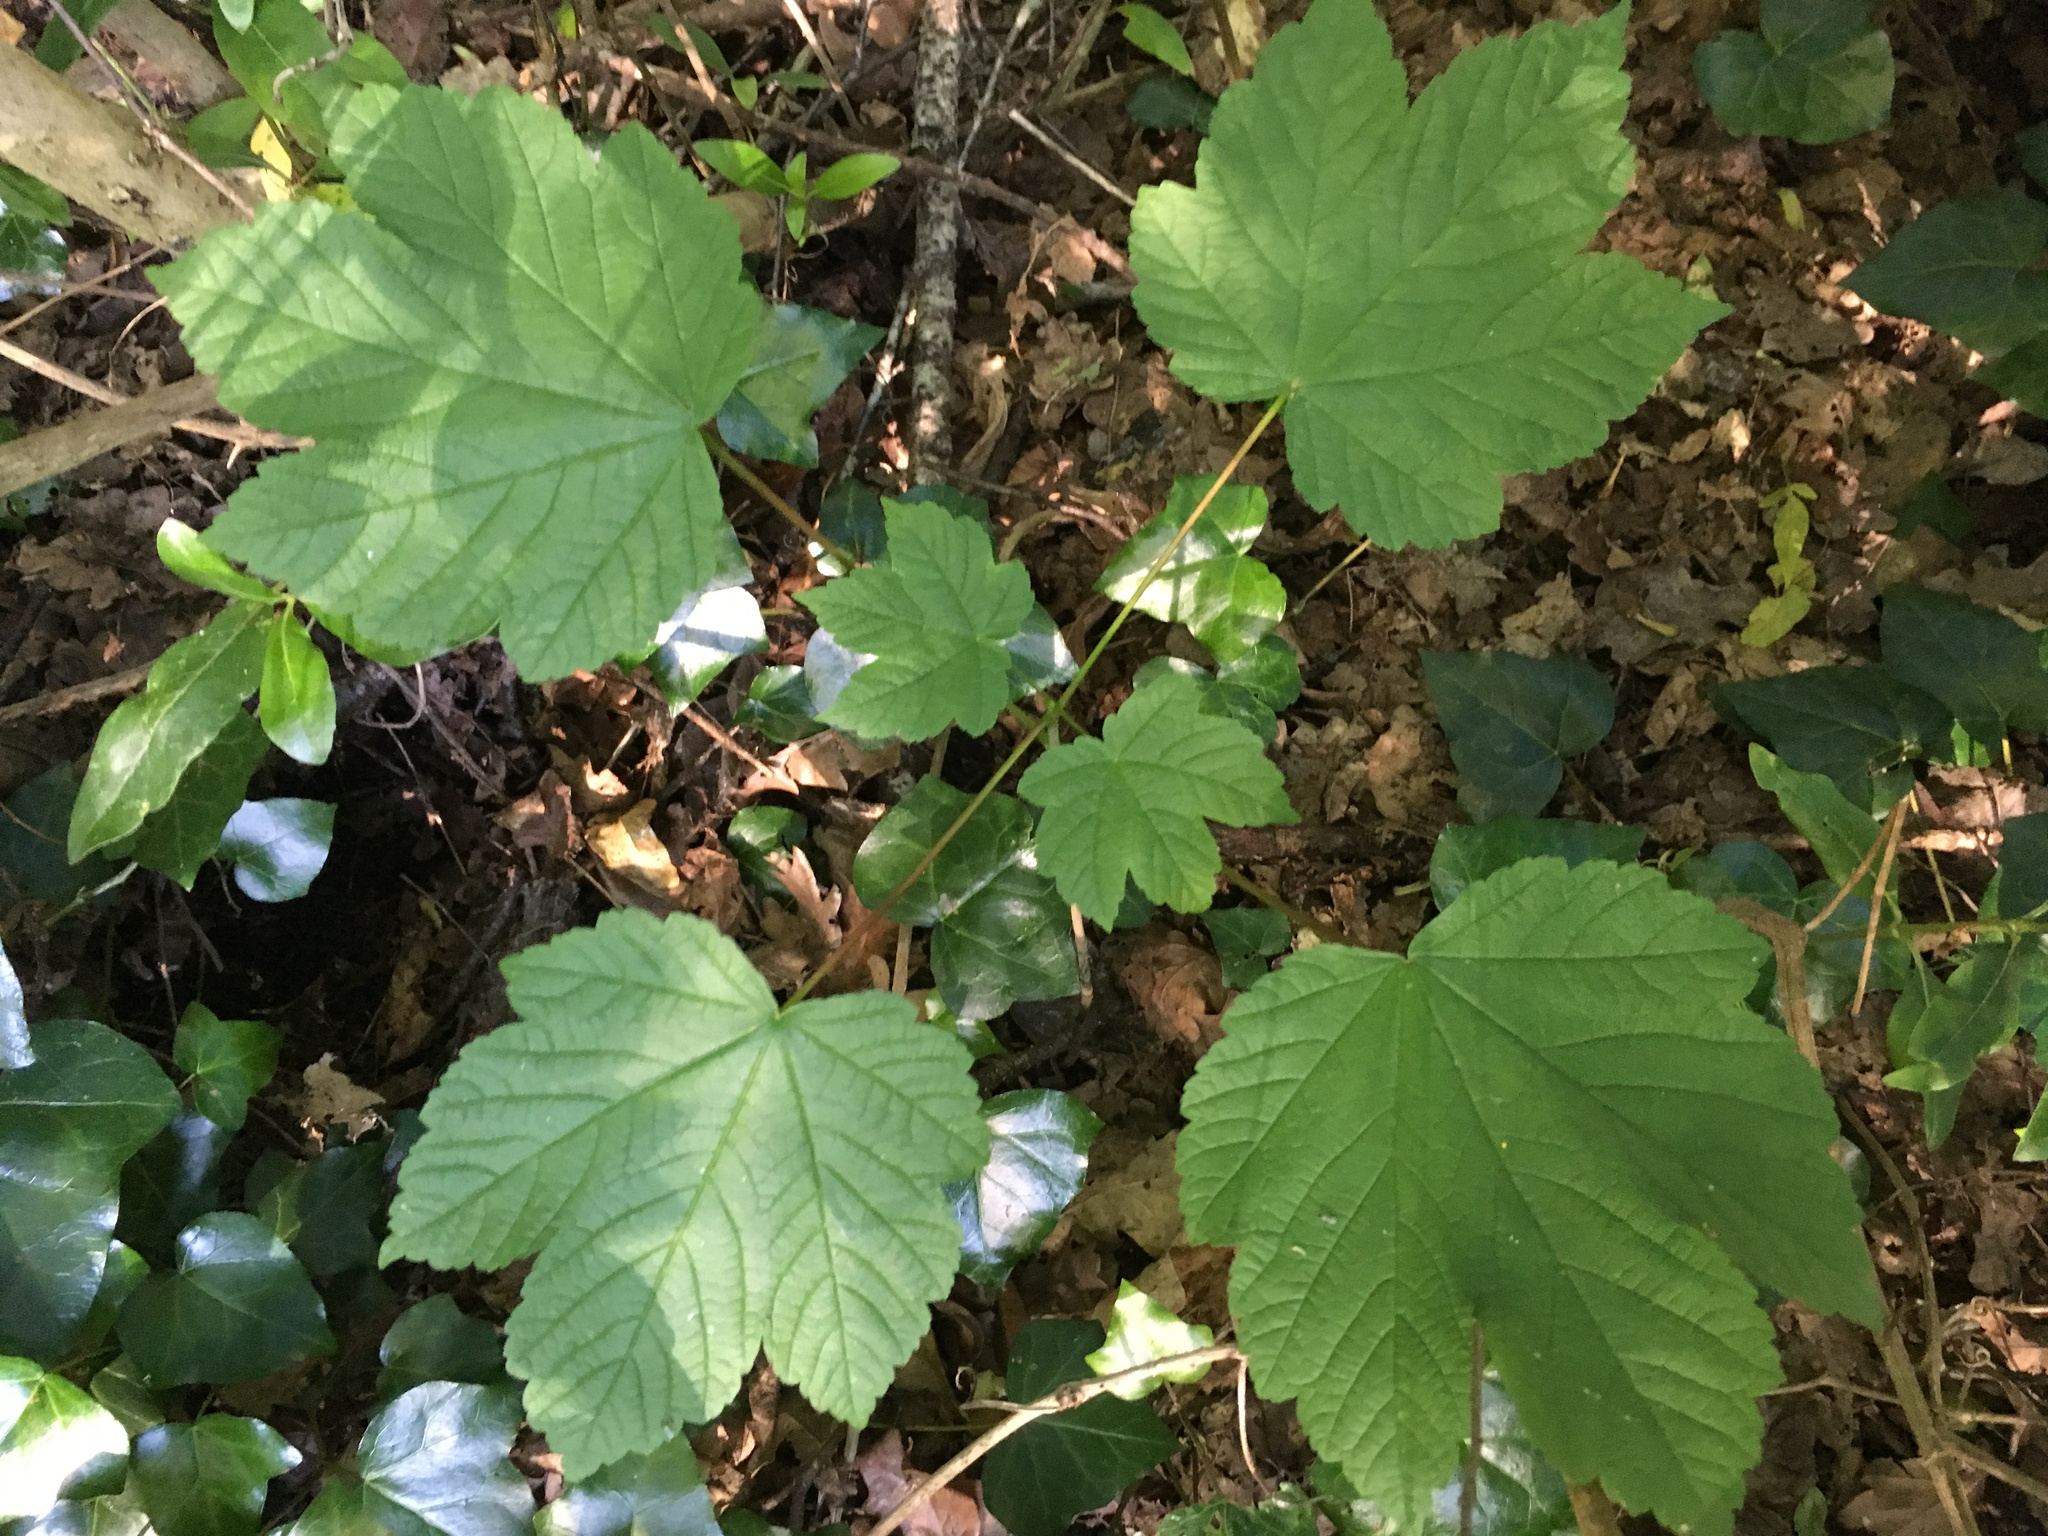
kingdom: Plantae
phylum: Tracheophyta
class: Magnoliopsida
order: Sapindales
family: Sapindaceae
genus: Acer
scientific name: Acer pseudoplatanus
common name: Sycamore
